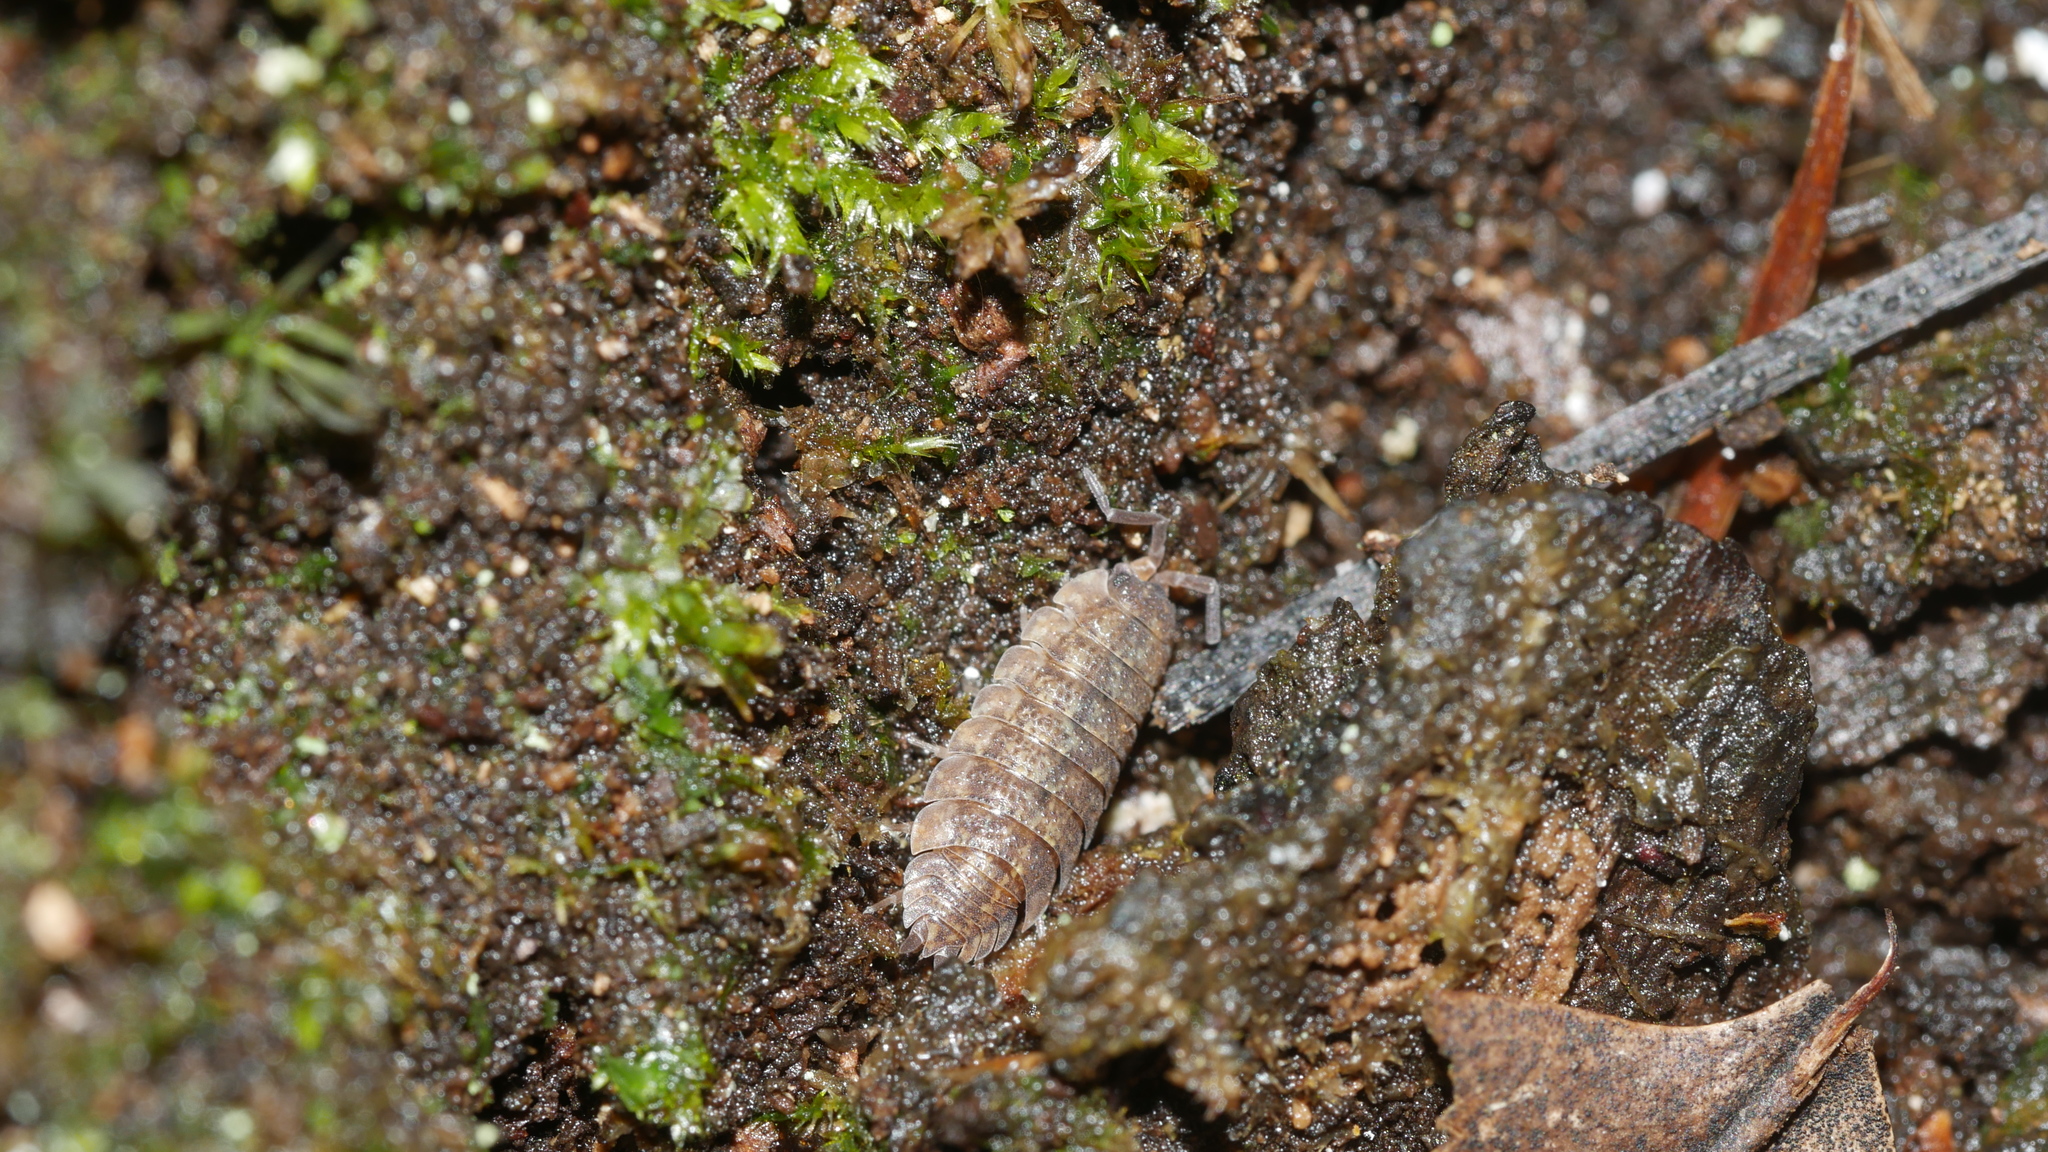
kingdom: Animalia
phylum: Arthropoda
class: Malacostraca
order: Isopoda
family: Porcellionidae
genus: Porcellio
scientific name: Porcellio scaber
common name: Common rough woodlouse
